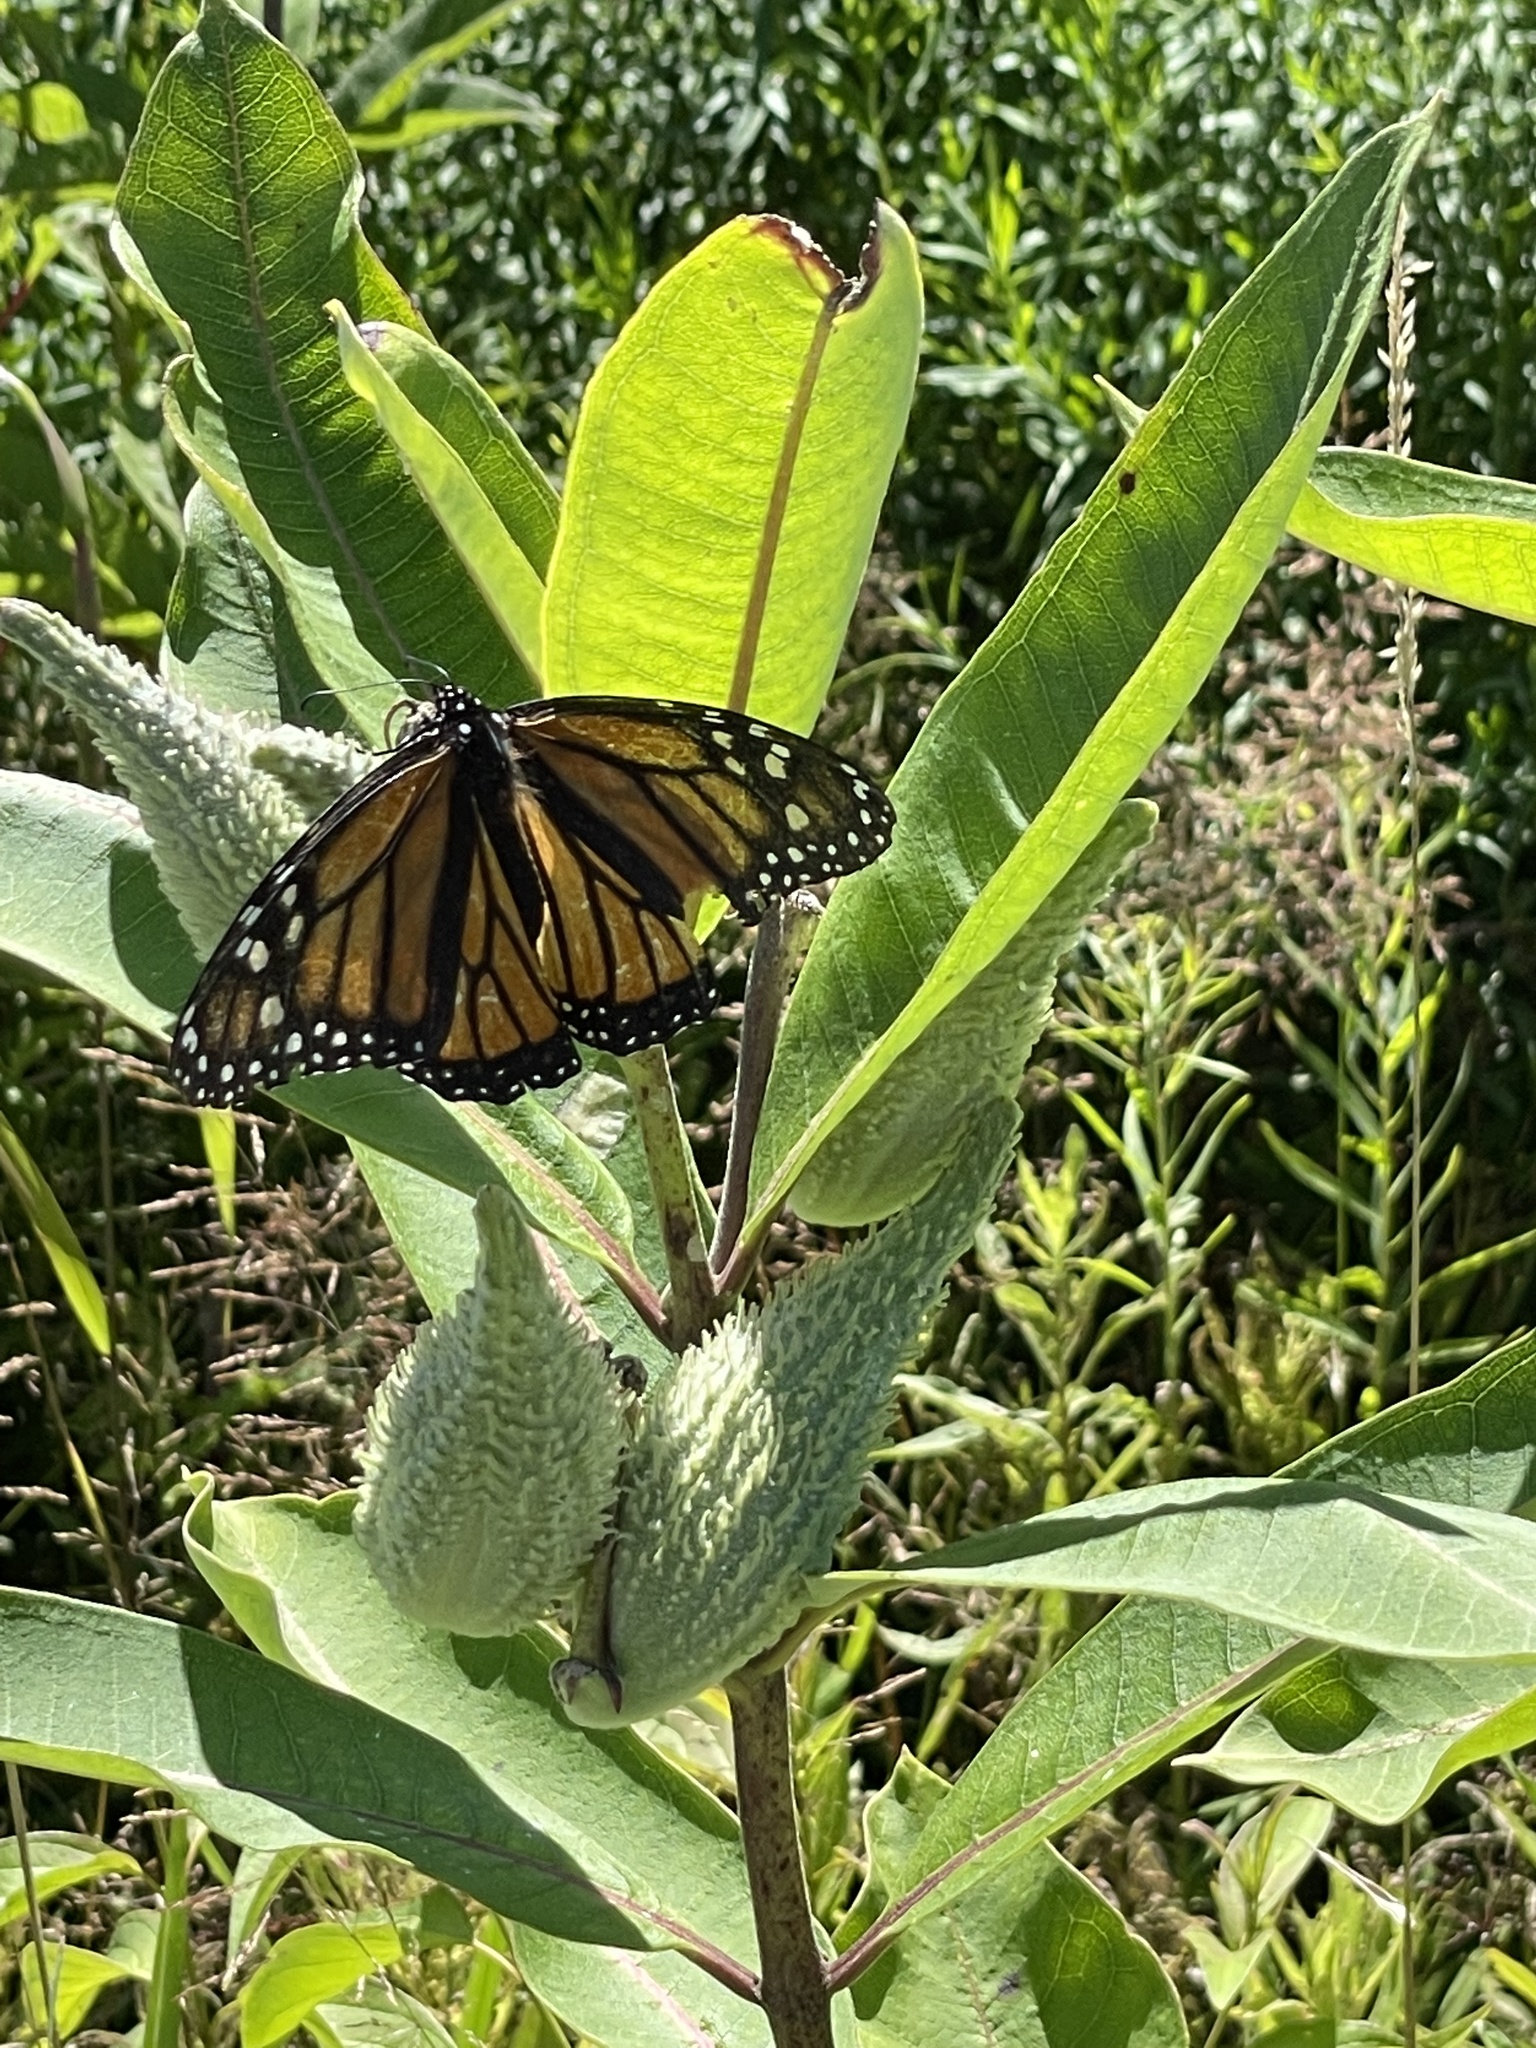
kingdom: Animalia
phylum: Arthropoda
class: Insecta
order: Lepidoptera
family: Nymphalidae
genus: Danaus
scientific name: Danaus plexippus
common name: Monarch
